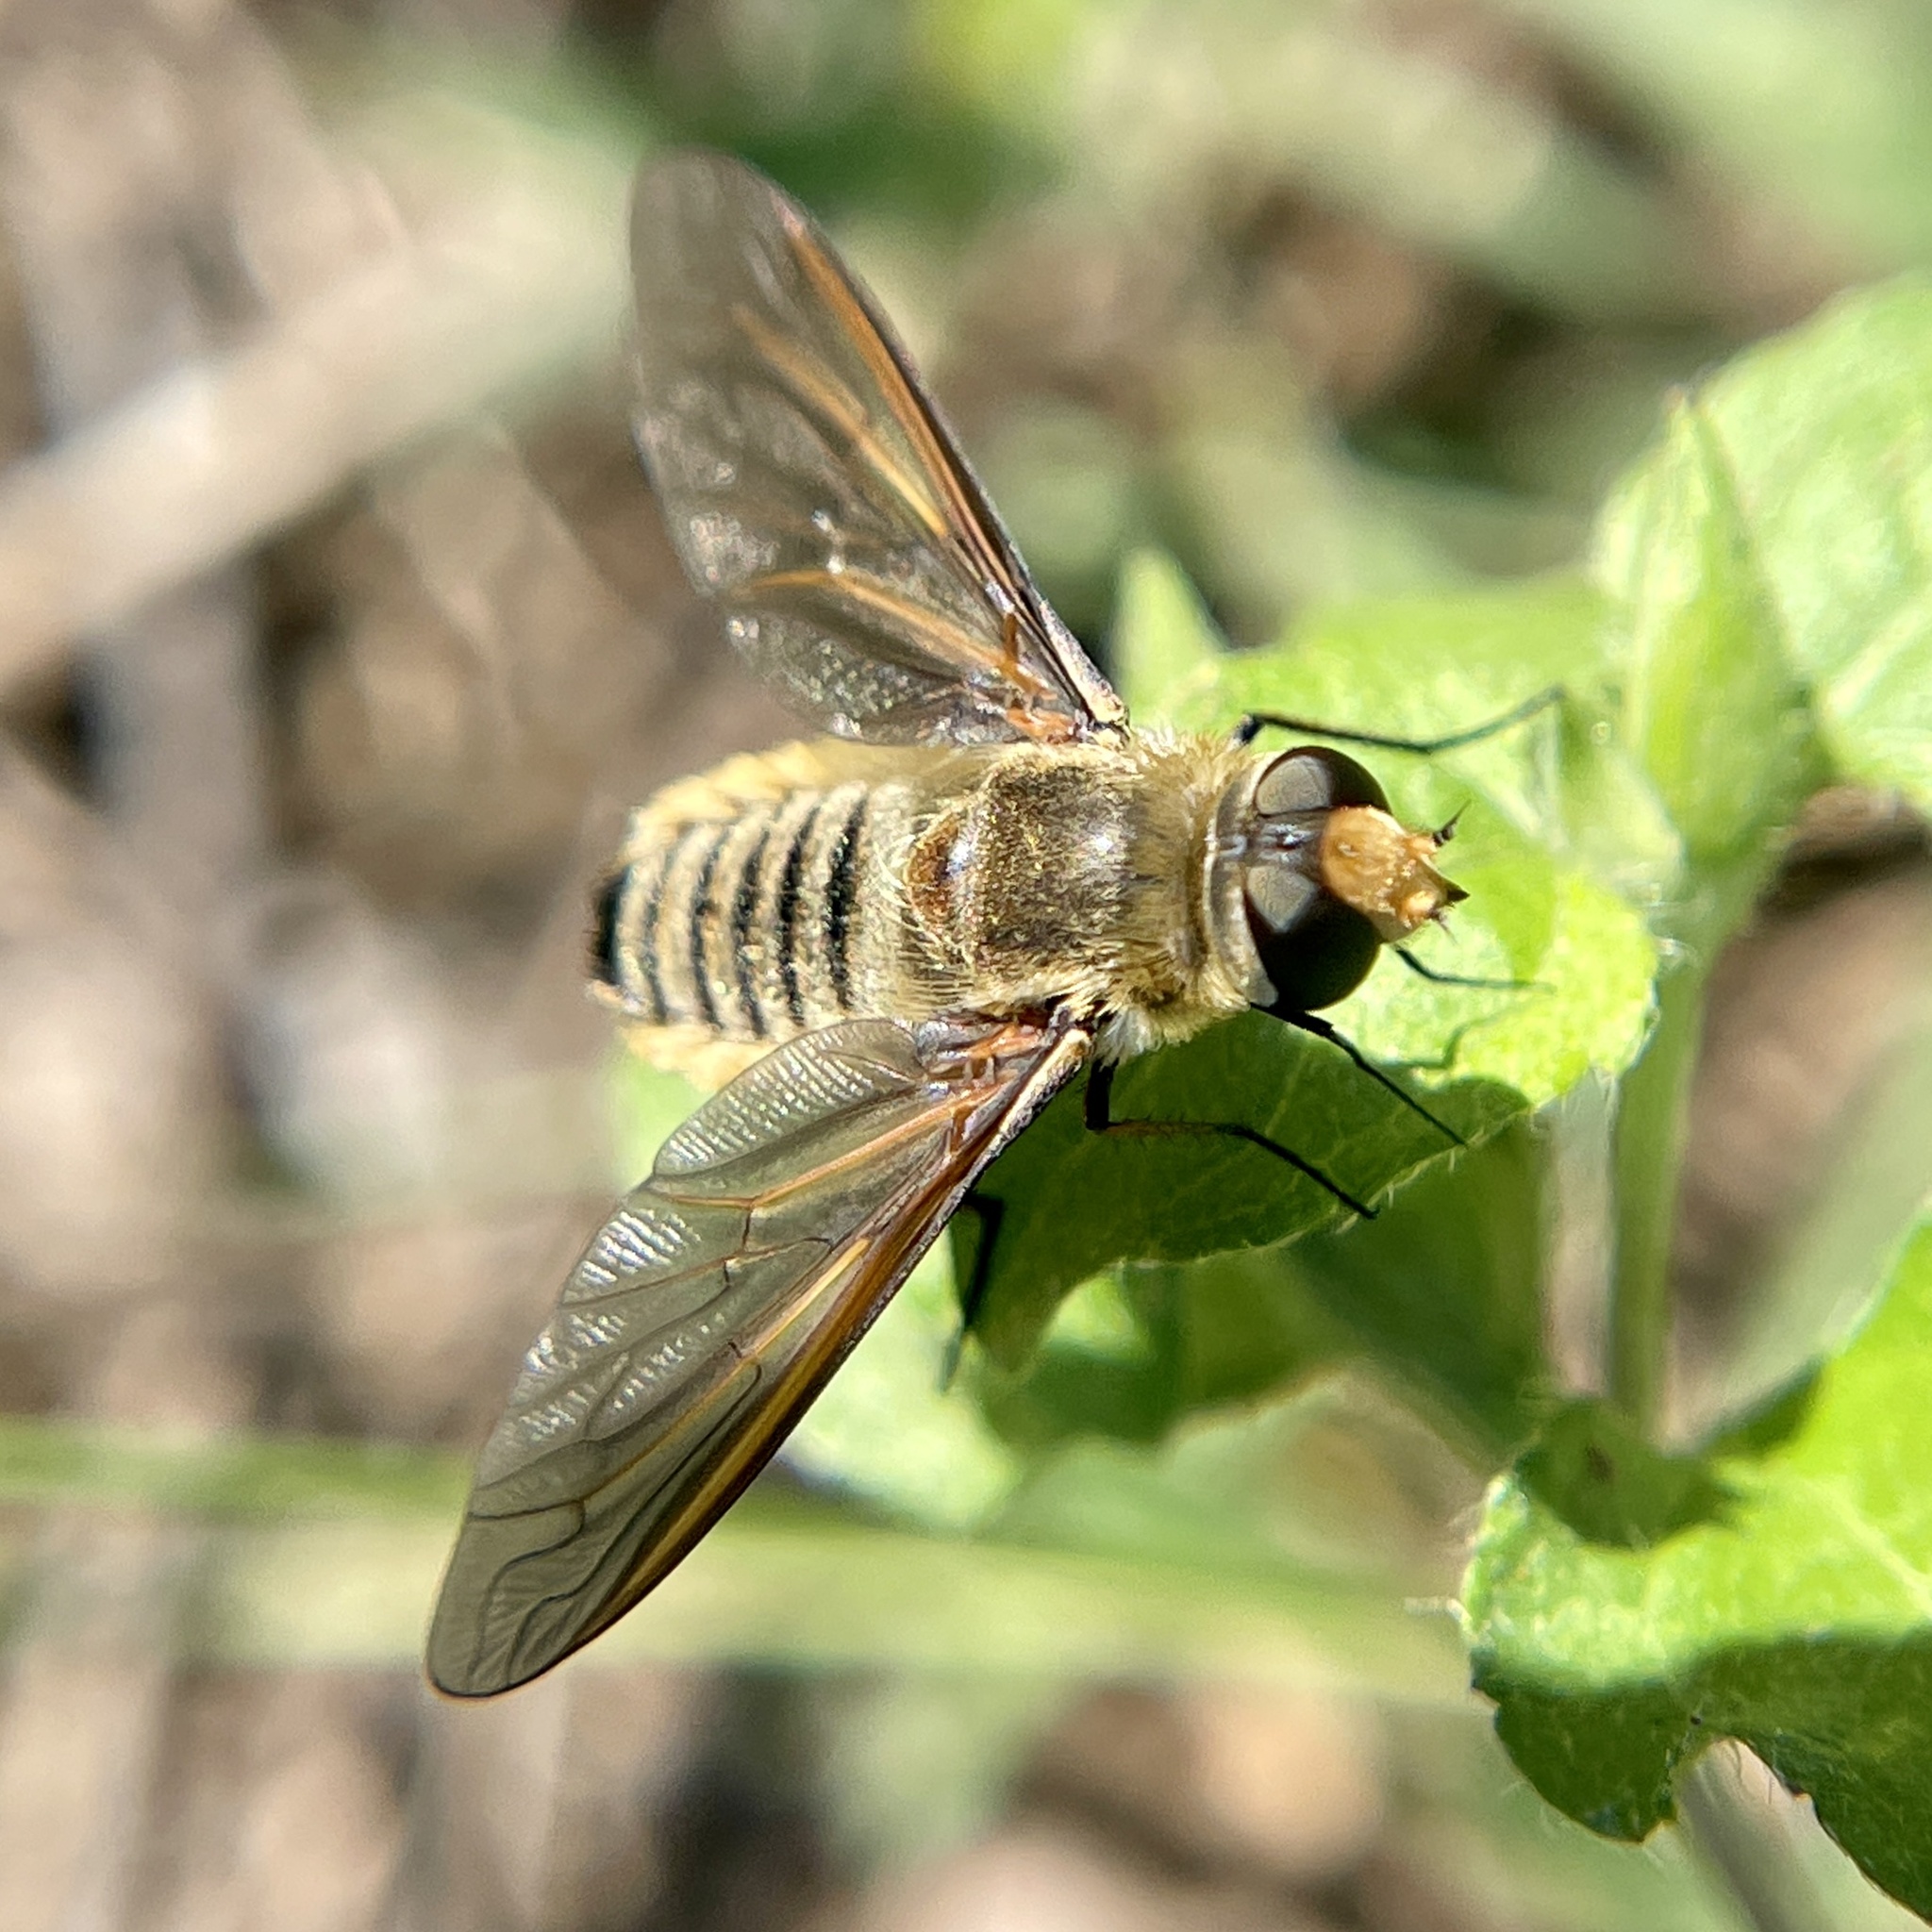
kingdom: Animalia
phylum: Arthropoda
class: Insecta
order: Diptera
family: Bombyliidae
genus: Poecilanthrax
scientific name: Poecilanthrax lucifer
